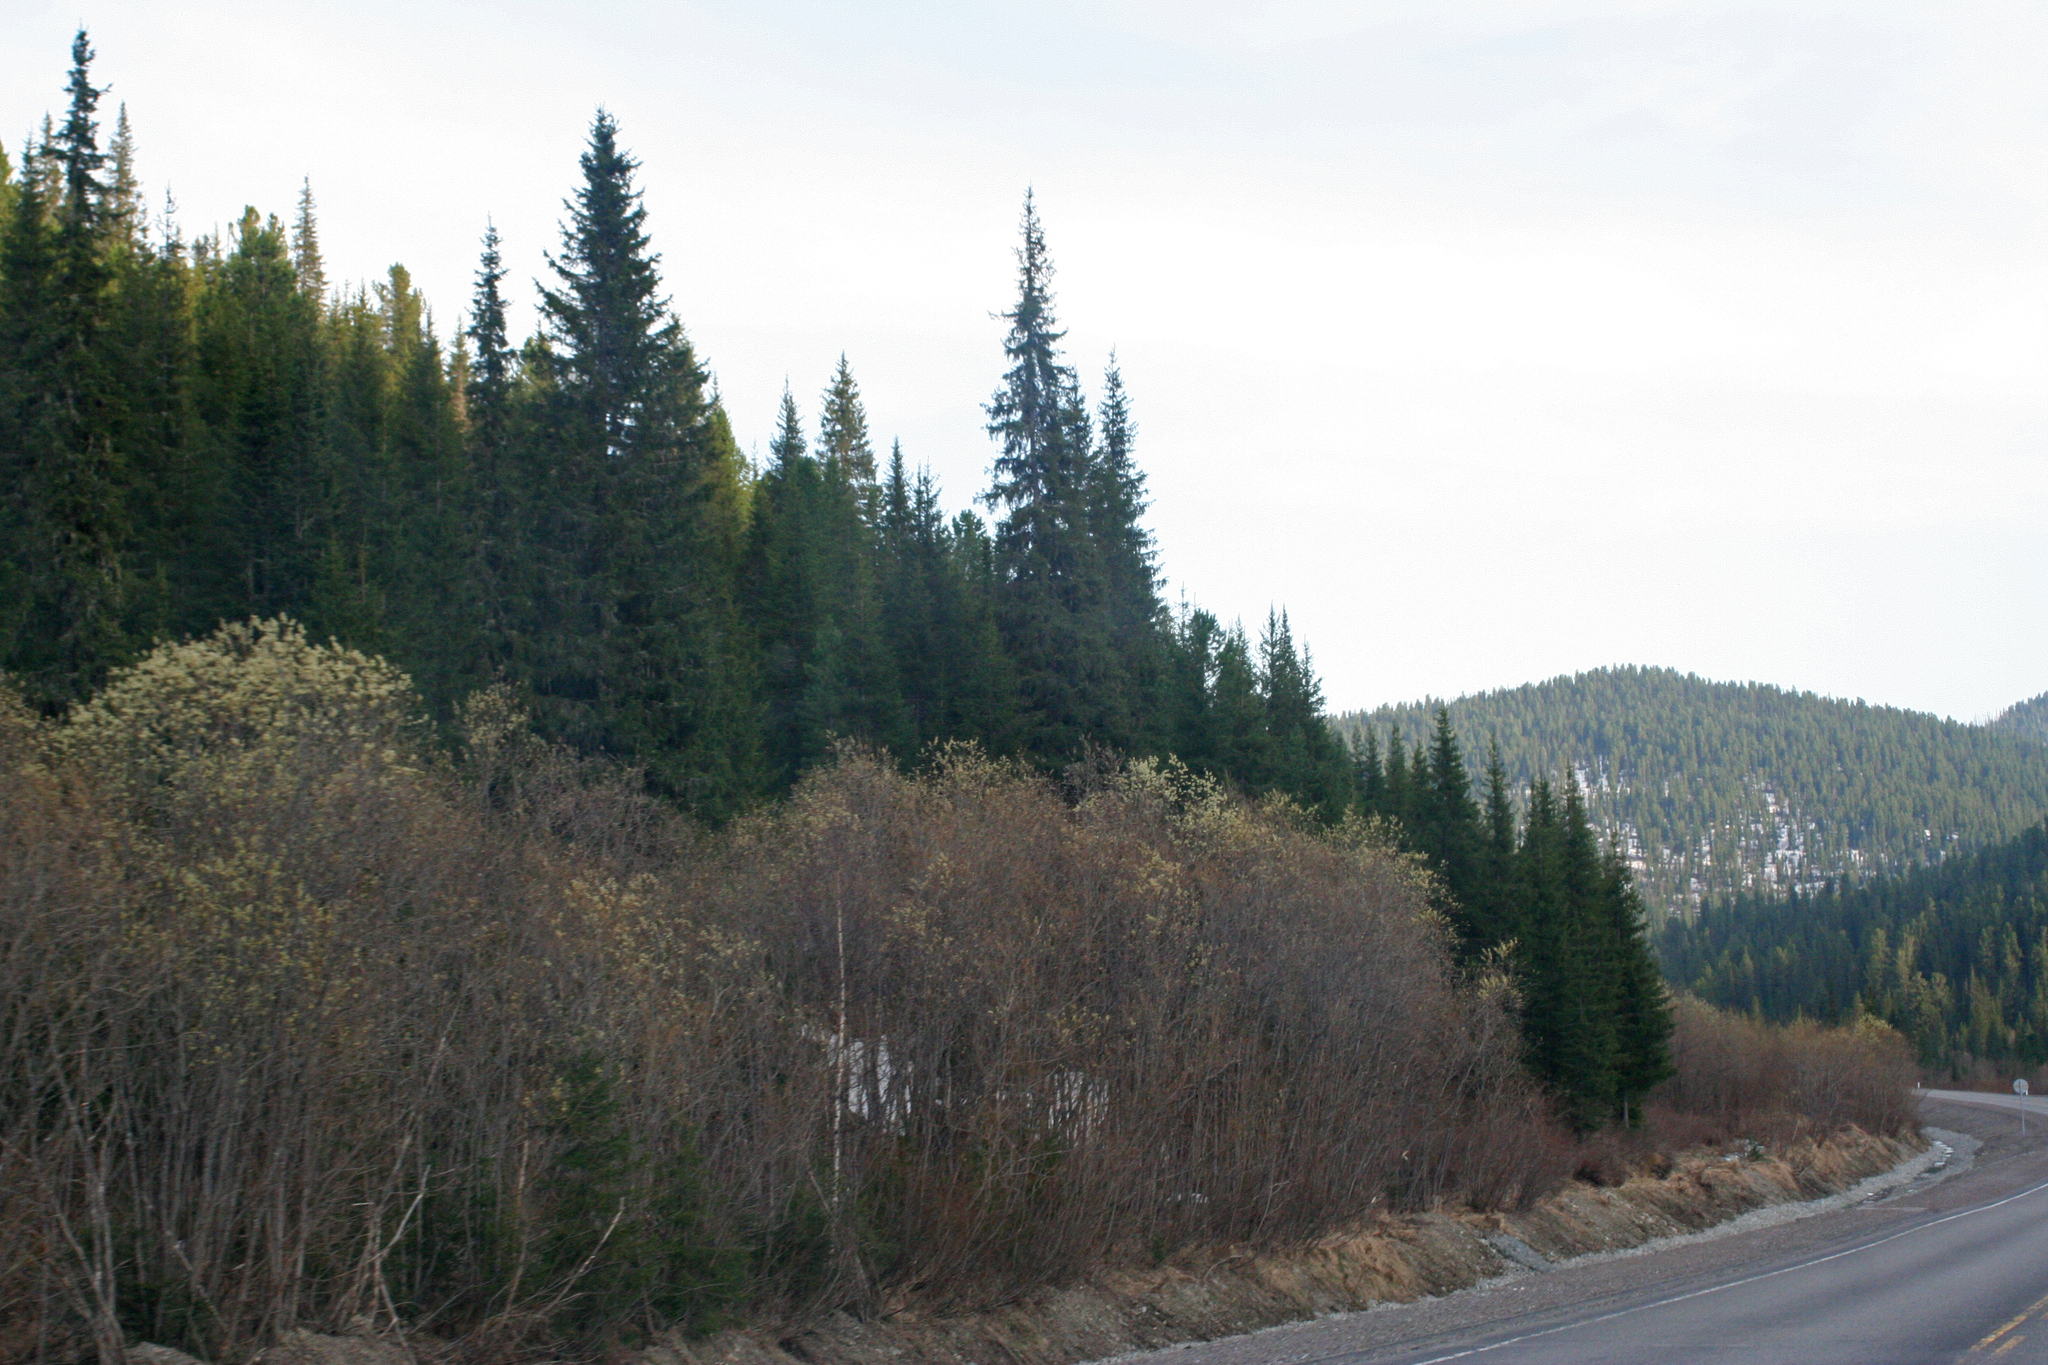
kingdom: Plantae
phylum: Tracheophyta
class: Pinopsida
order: Pinales
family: Pinaceae
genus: Picea
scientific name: Picea obovata
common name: Siberian spruce
